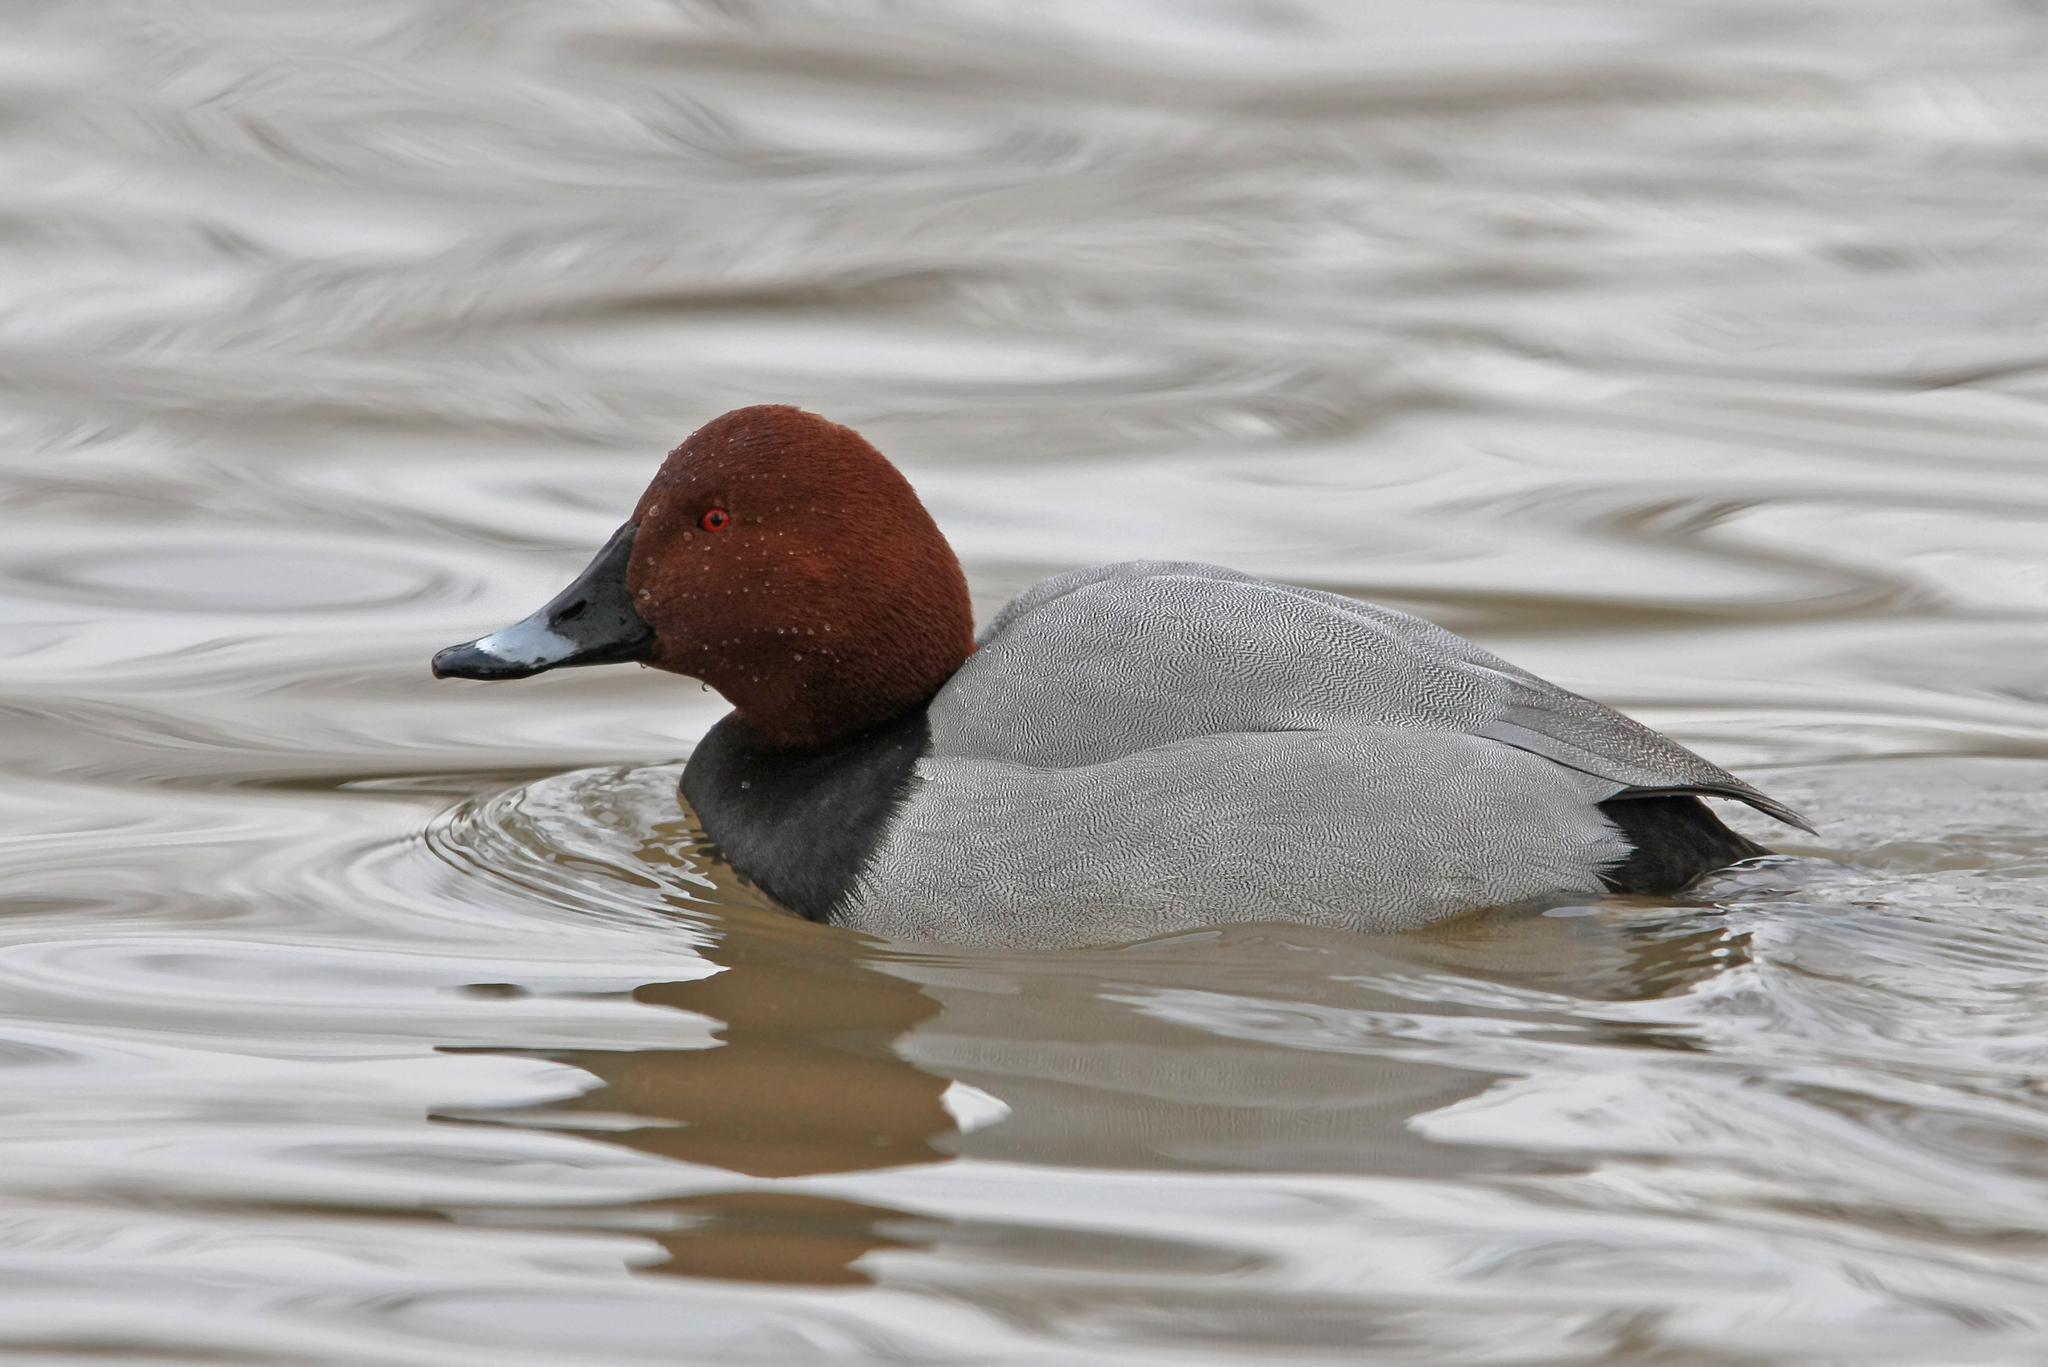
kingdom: Animalia
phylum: Chordata
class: Aves
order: Anseriformes
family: Anatidae
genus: Aythya
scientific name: Aythya ferina
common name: Common pochard
